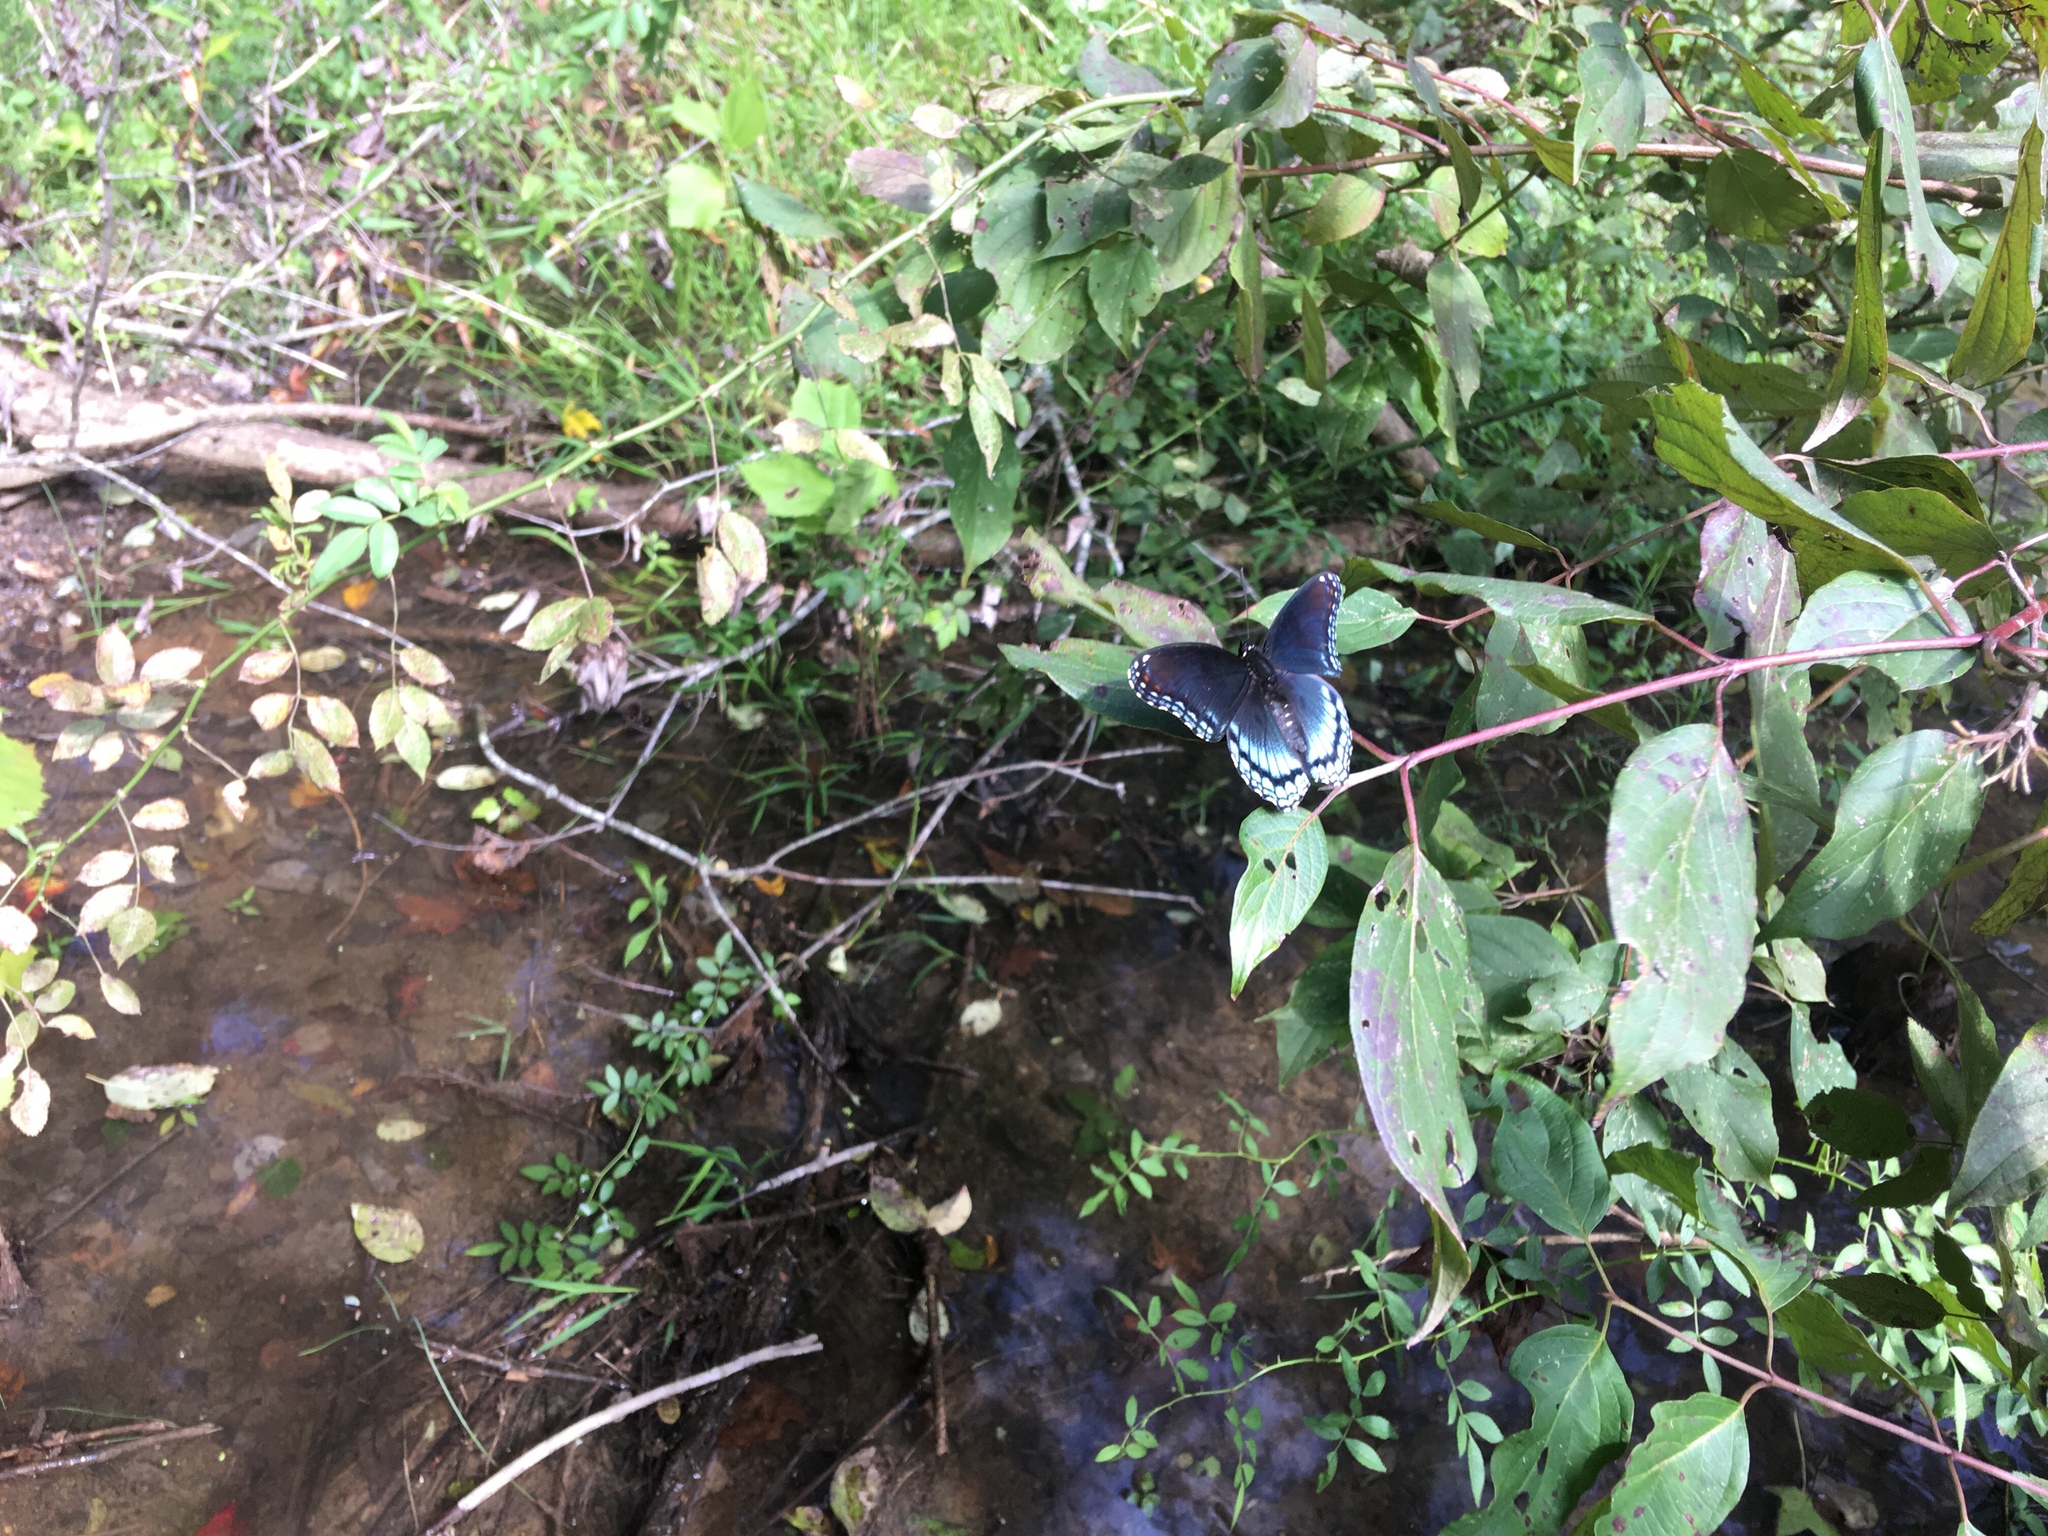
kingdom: Animalia
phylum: Arthropoda
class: Insecta
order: Lepidoptera
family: Nymphalidae
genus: Limenitis
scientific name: Limenitis astyanax
